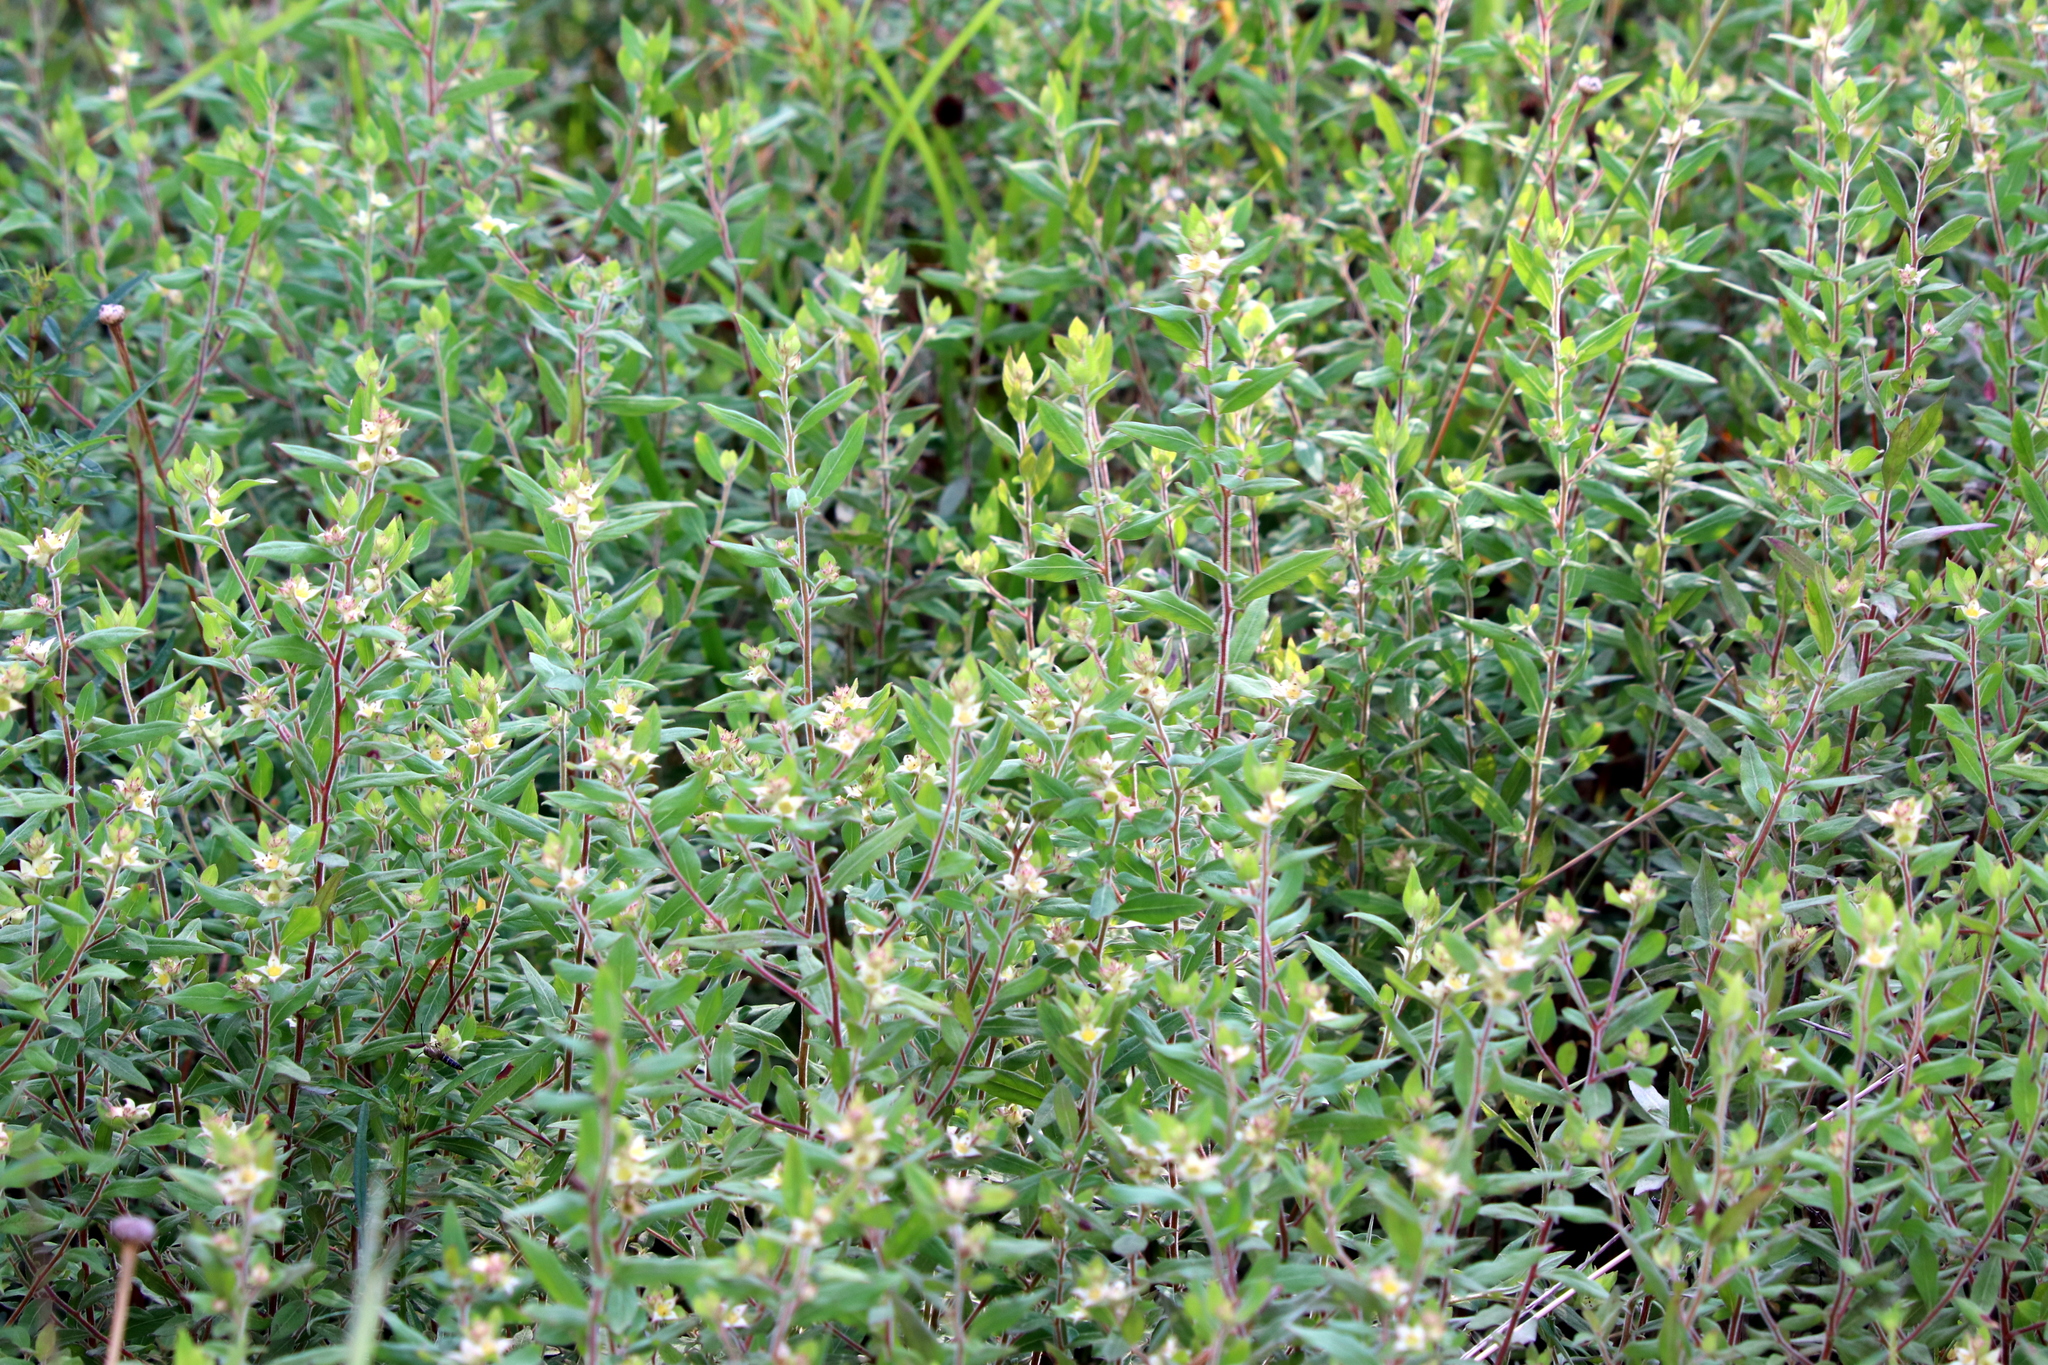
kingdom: Plantae
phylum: Tracheophyta
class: Magnoliopsida
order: Myrtales
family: Onagraceae
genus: Ludwigia
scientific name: Ludwigia pilosa
